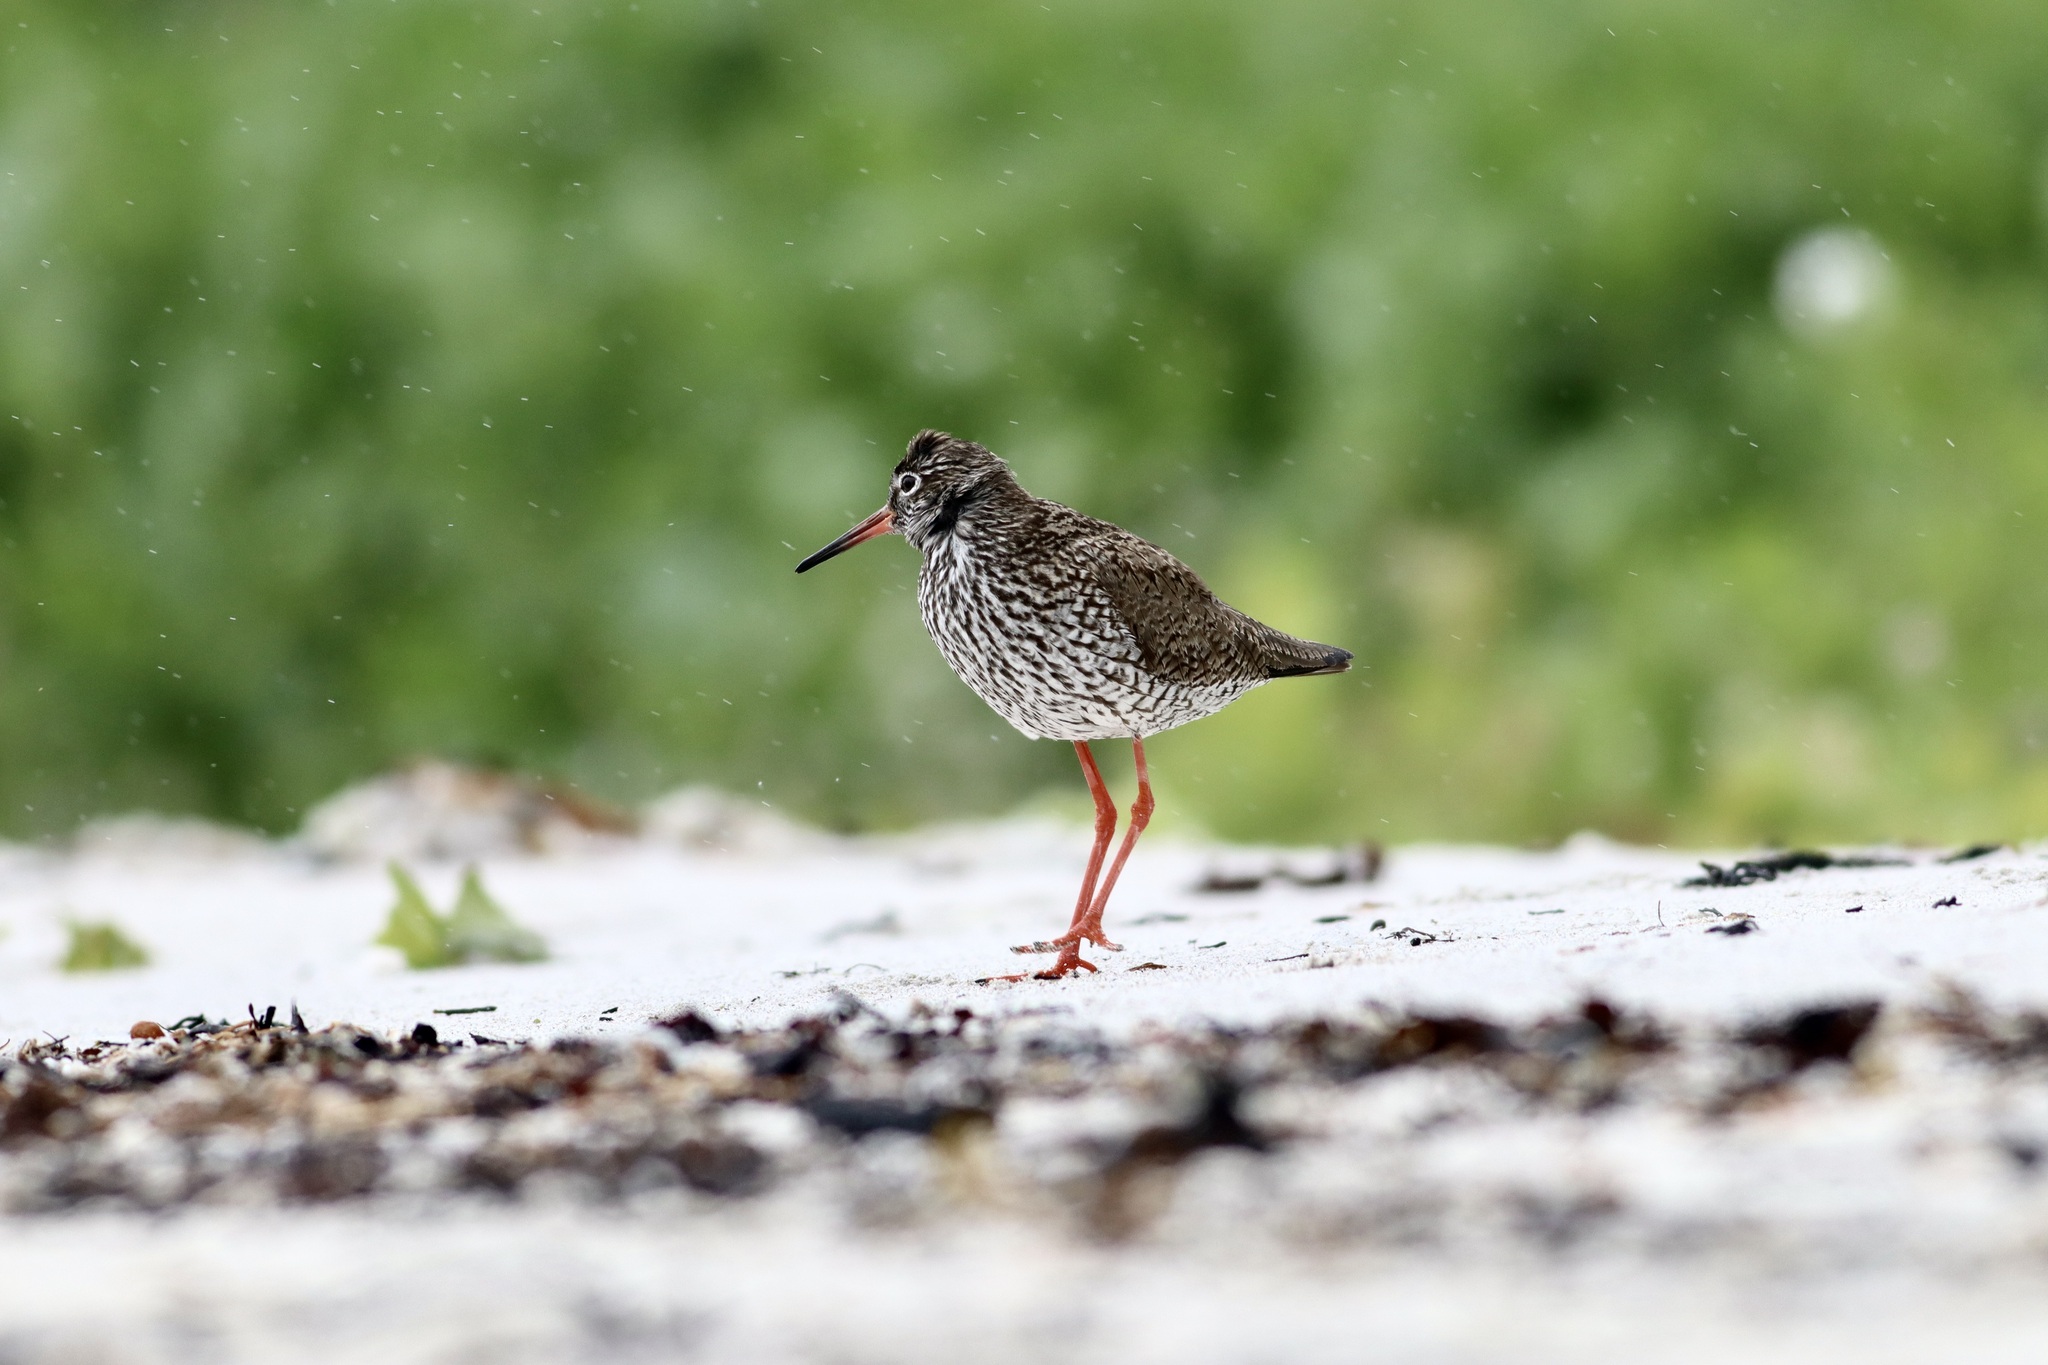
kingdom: Animalia
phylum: Chordata
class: Aves
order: Charadriiformes
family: Scolopacidae
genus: Tringa
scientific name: Tringa totanus
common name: Common redshank
